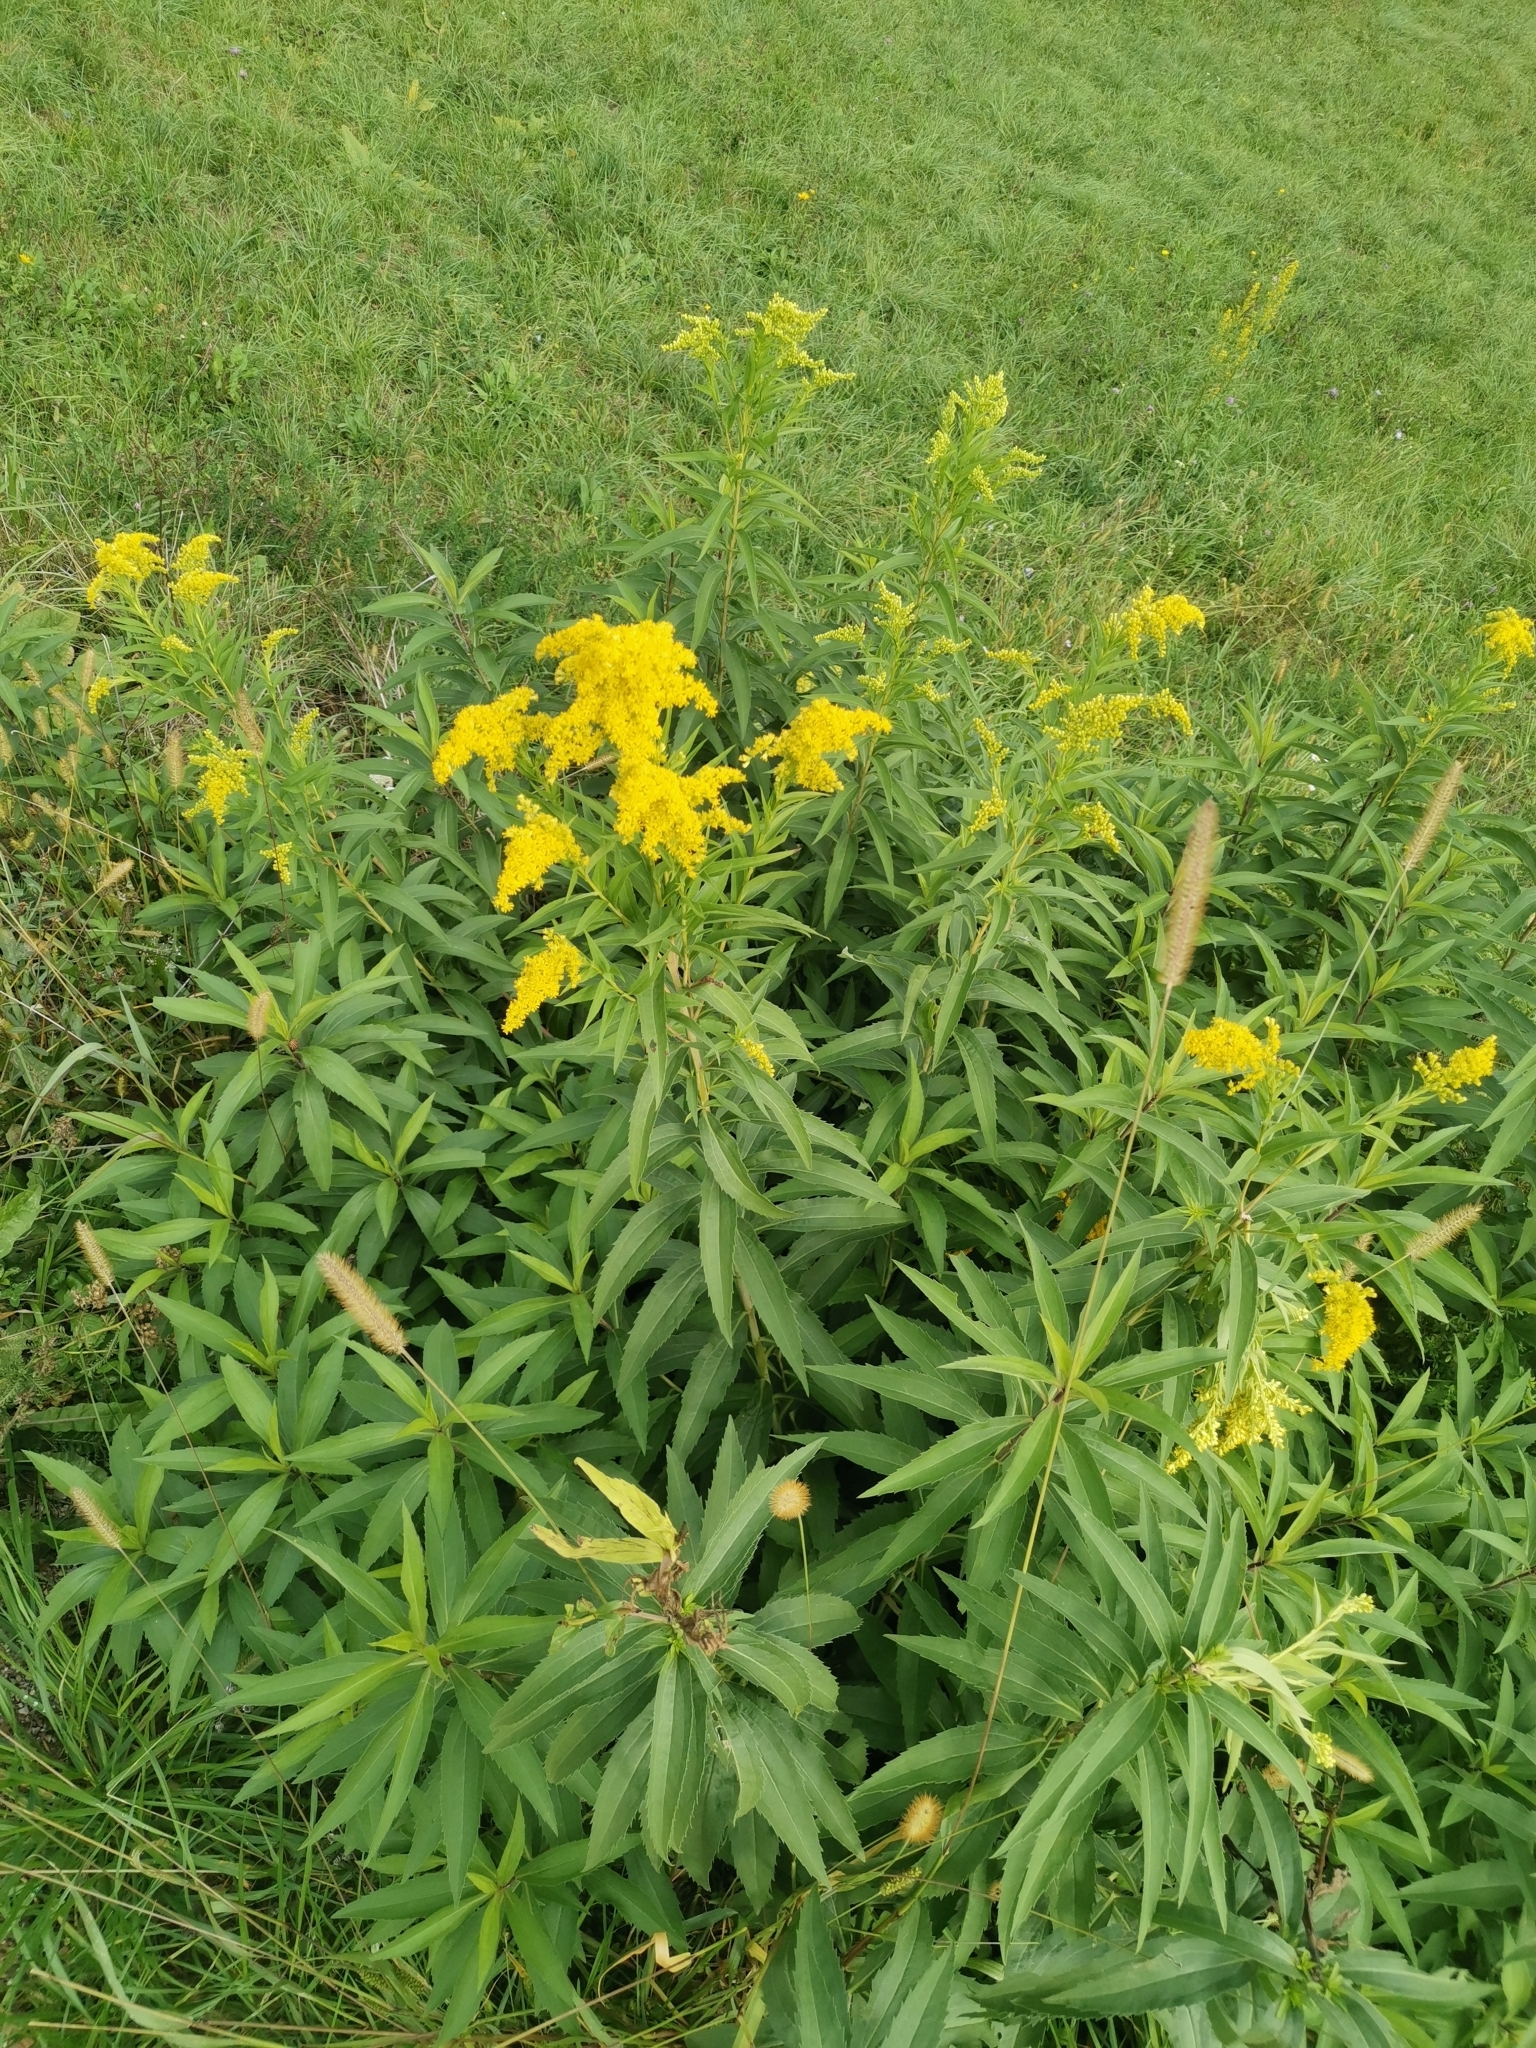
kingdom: Plantae
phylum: Tracheophyta
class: Magnoliopsida
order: Asterales
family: Asteraceae
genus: Solidago
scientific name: Solidago gigantea
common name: Giant goldenrod
